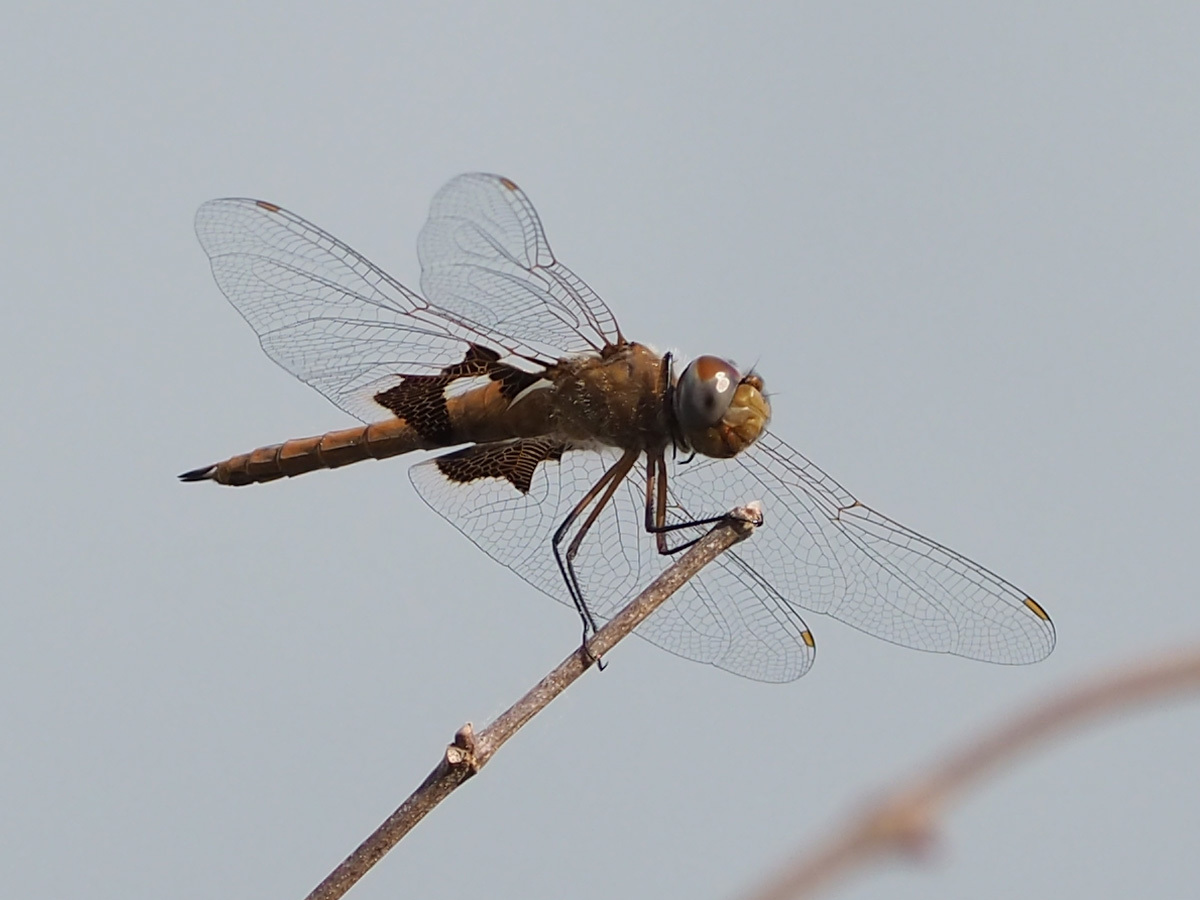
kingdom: Animalia
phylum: Arthropoda
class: Insecta
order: Odonata
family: Libellulidae
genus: Tramea
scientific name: Tramea onusta
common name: Red saddlebags
